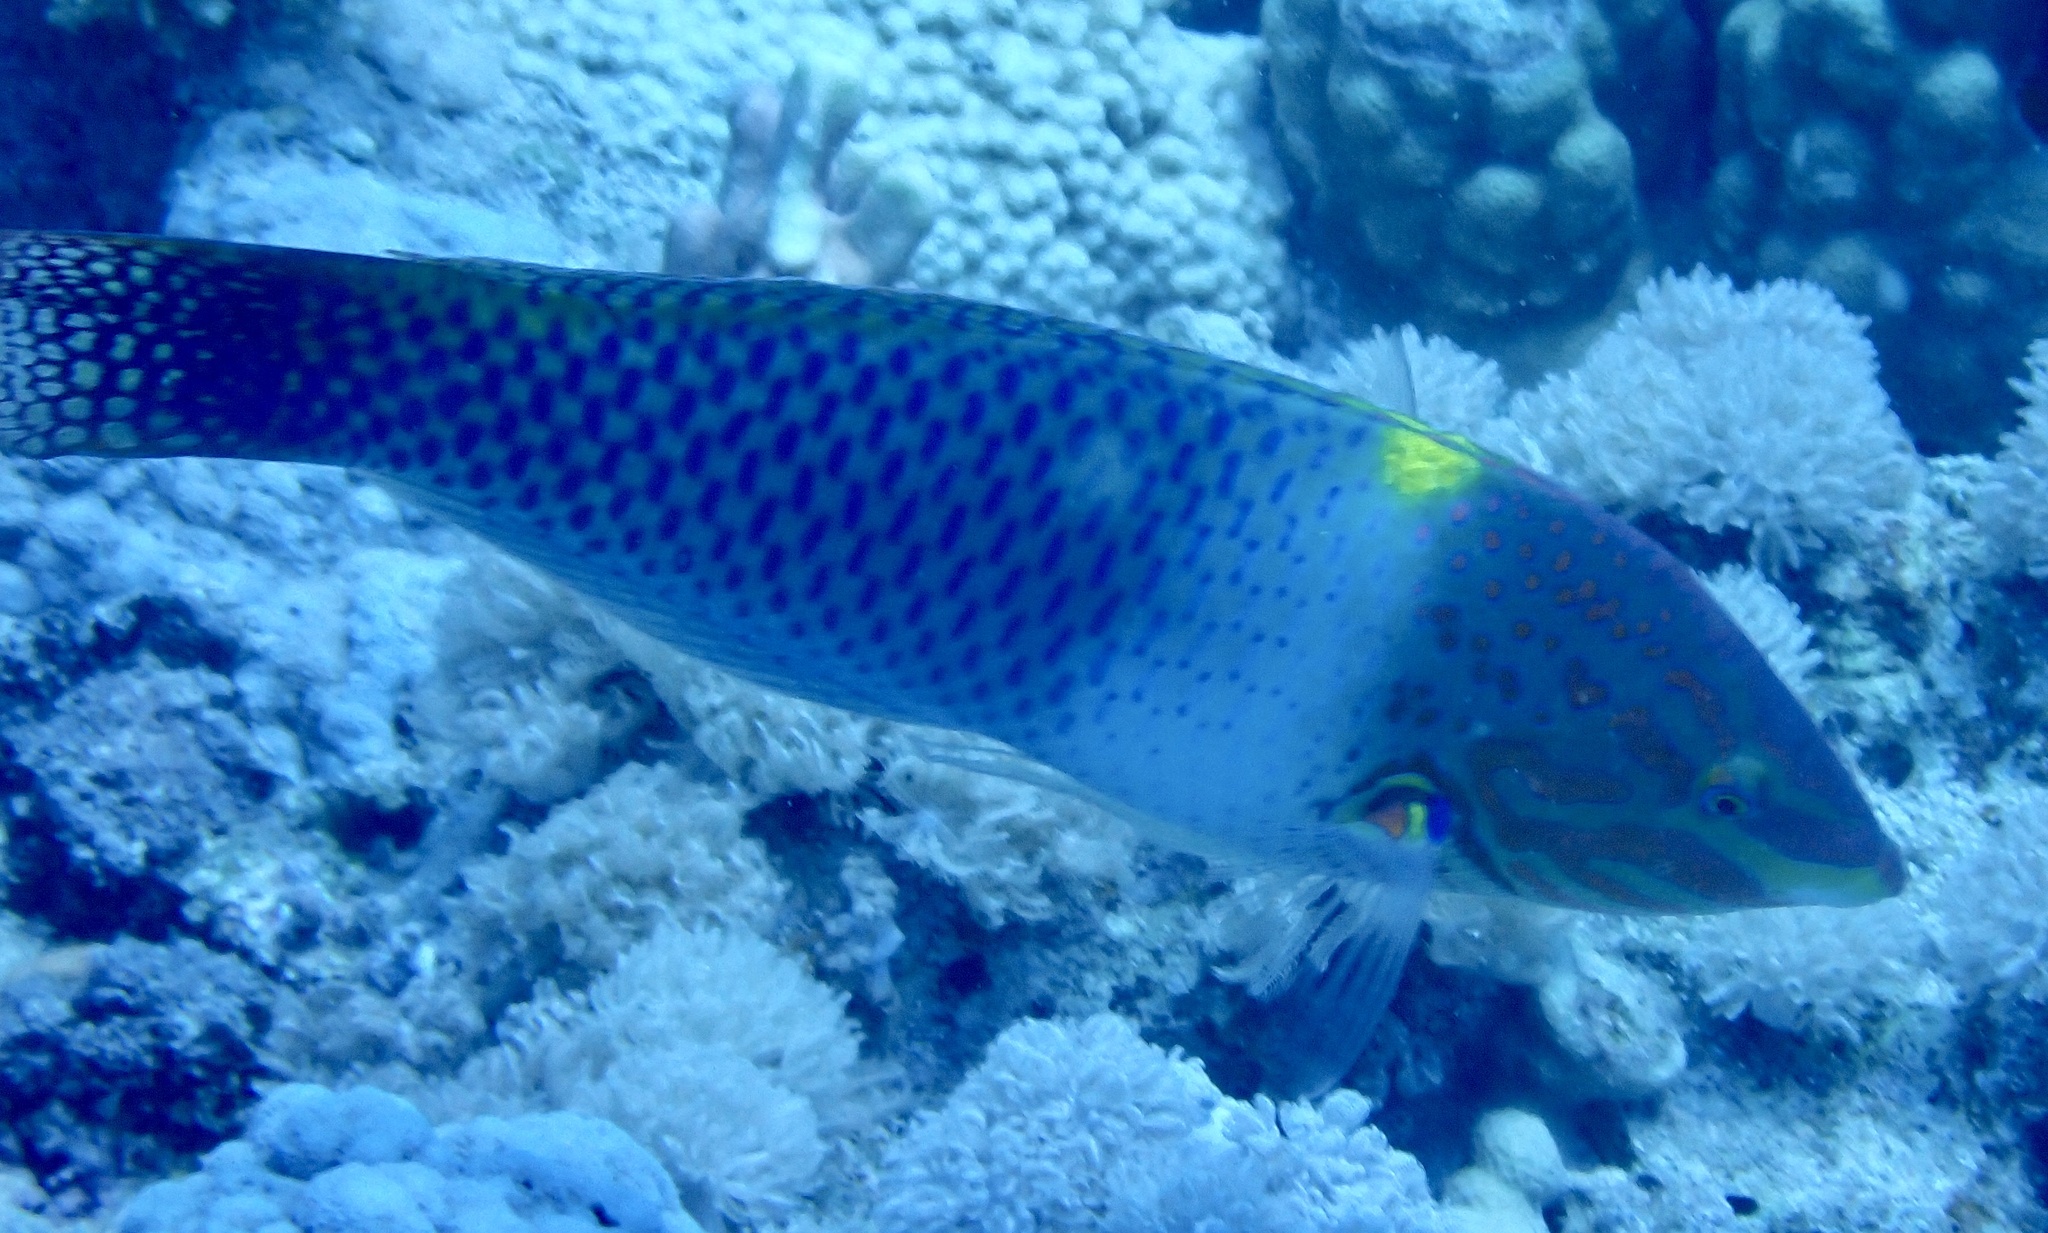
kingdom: Animalia
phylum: Chordata
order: Perciformes
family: Labridae
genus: Halichoeres
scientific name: Halichoeres hortulanus
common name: Checkerboard wrasse
